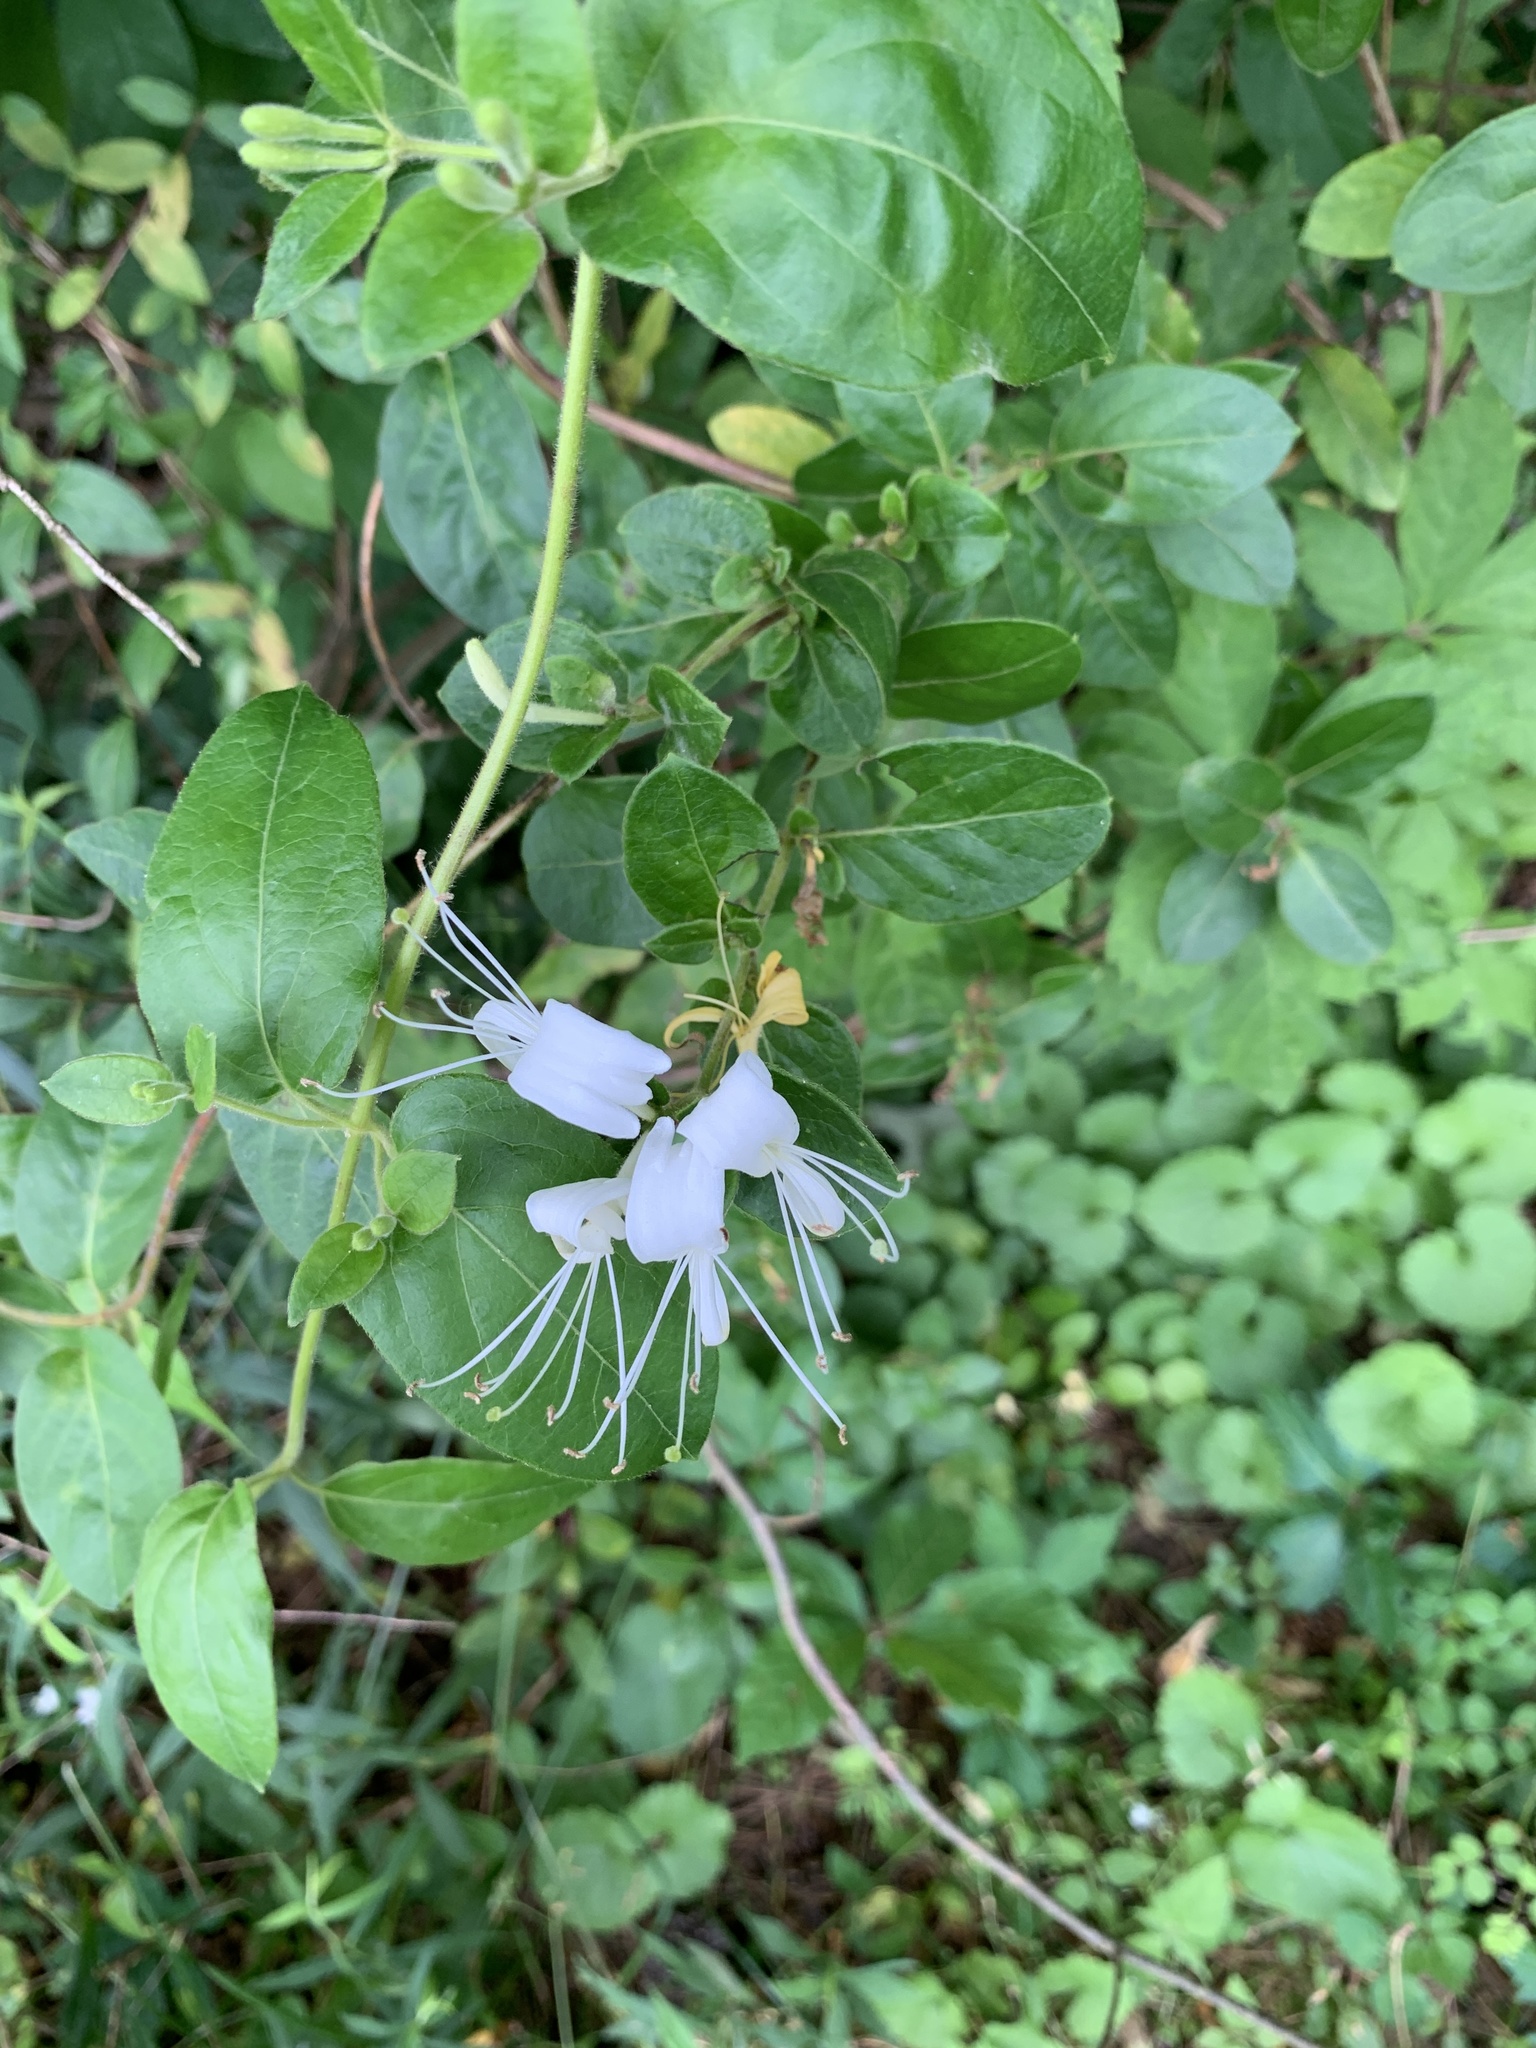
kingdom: Plantae
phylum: Tracheophyta
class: Magnoliopsida
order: Dipsacales
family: Caprifoliaceae
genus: Lonicera
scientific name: Lonicera japonica
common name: Japanese honeysuckle
